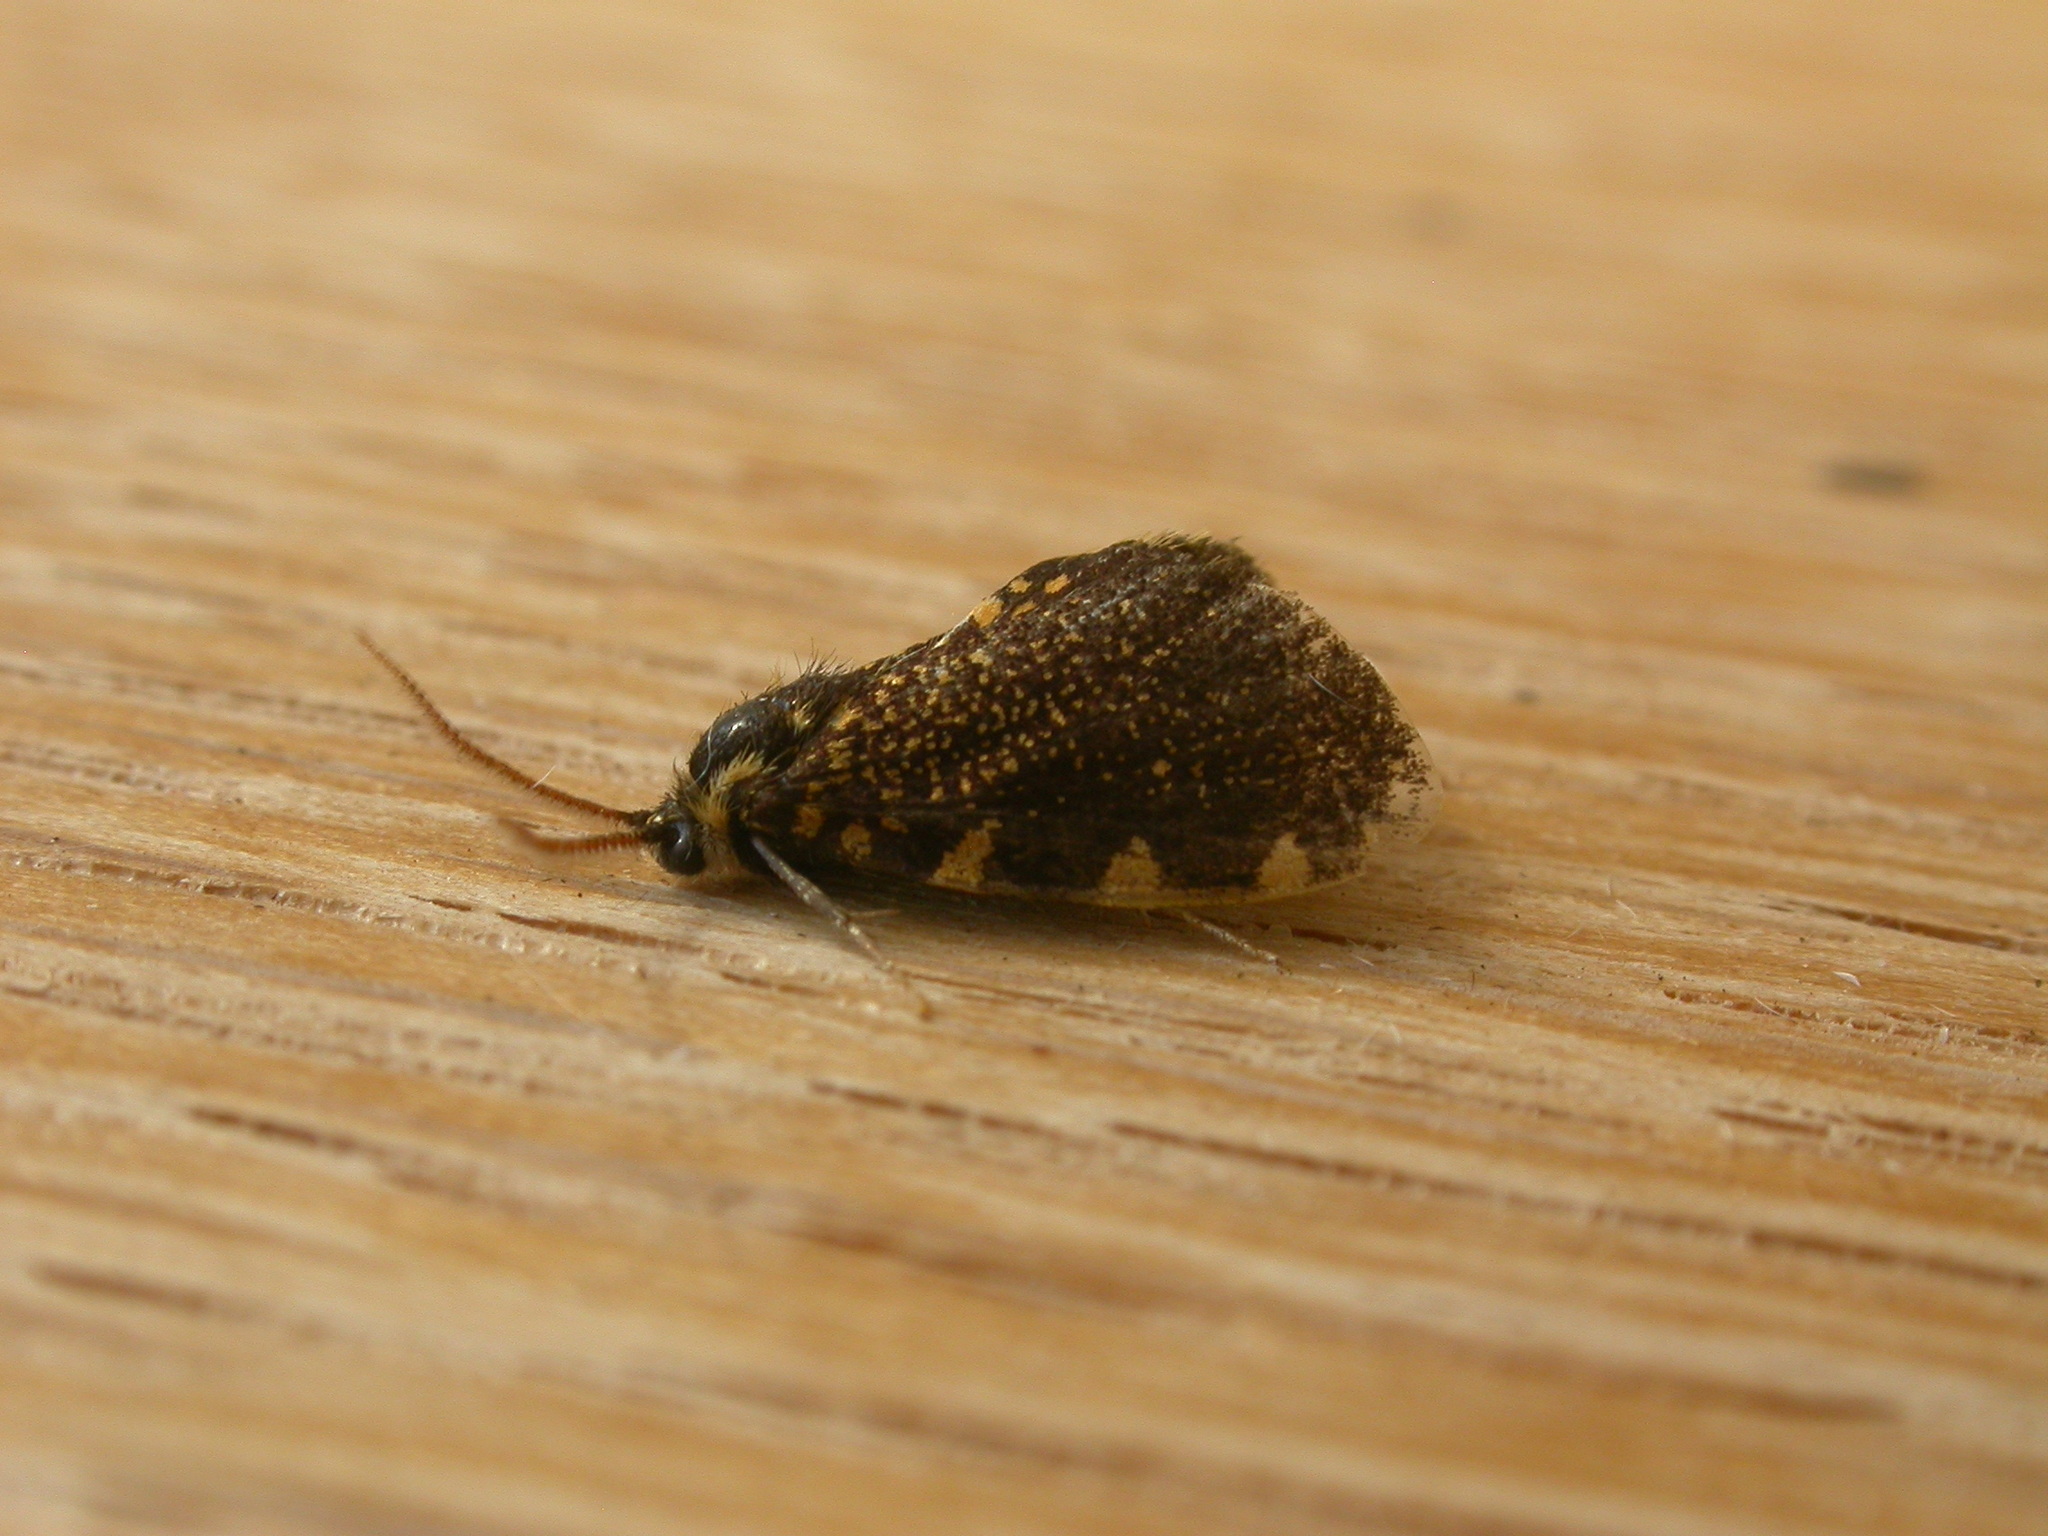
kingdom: Animalia
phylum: Arthropoda
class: Insecta
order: Lepidoptera
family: Psychidae
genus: Cebysa
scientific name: Cebysa leucotelus
